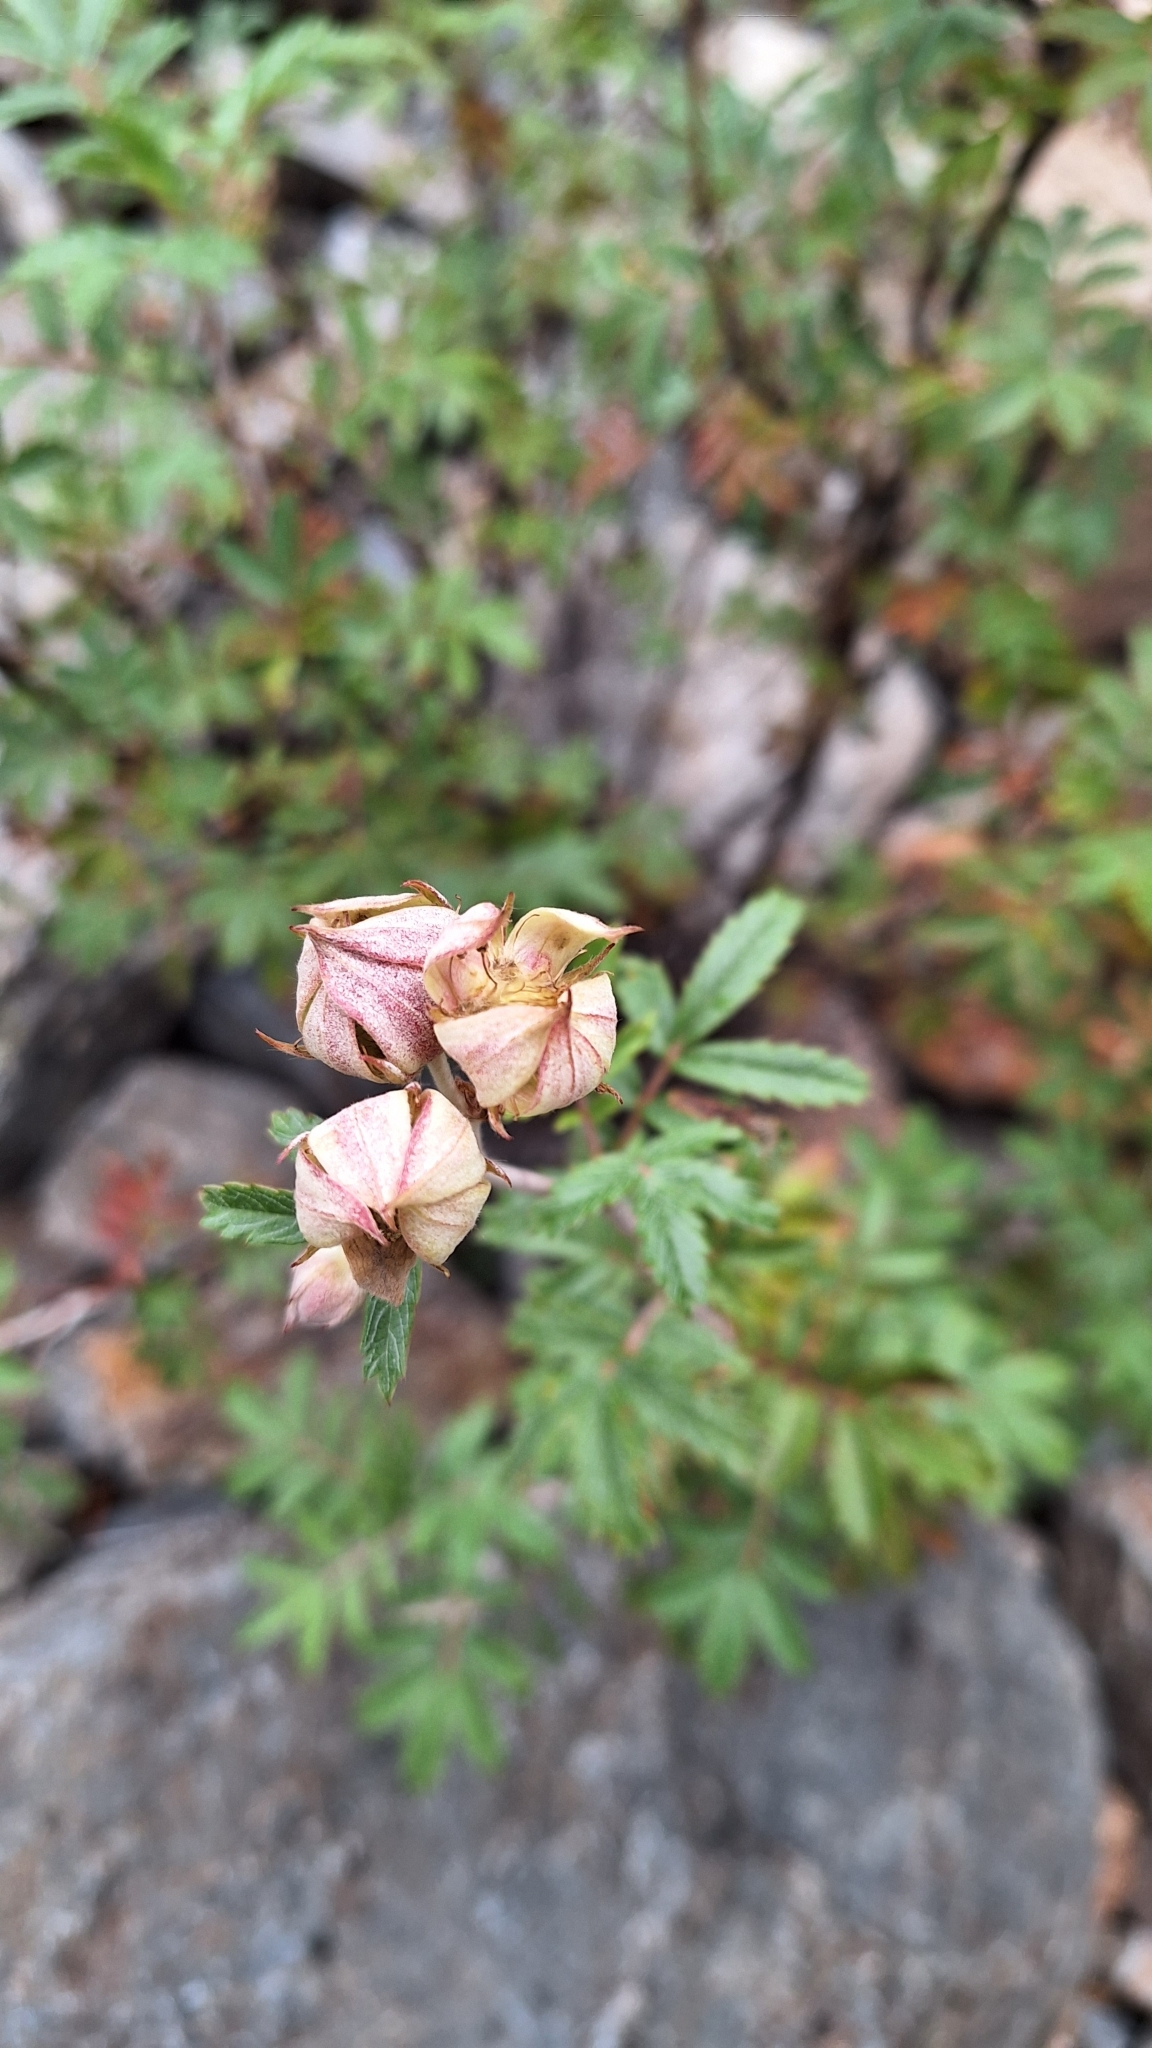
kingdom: Plantae
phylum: Tracheophyta
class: Magnoliopsida
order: Rosales
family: Rosaceae
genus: Farinopsis
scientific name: Farinopsis salesoviana
